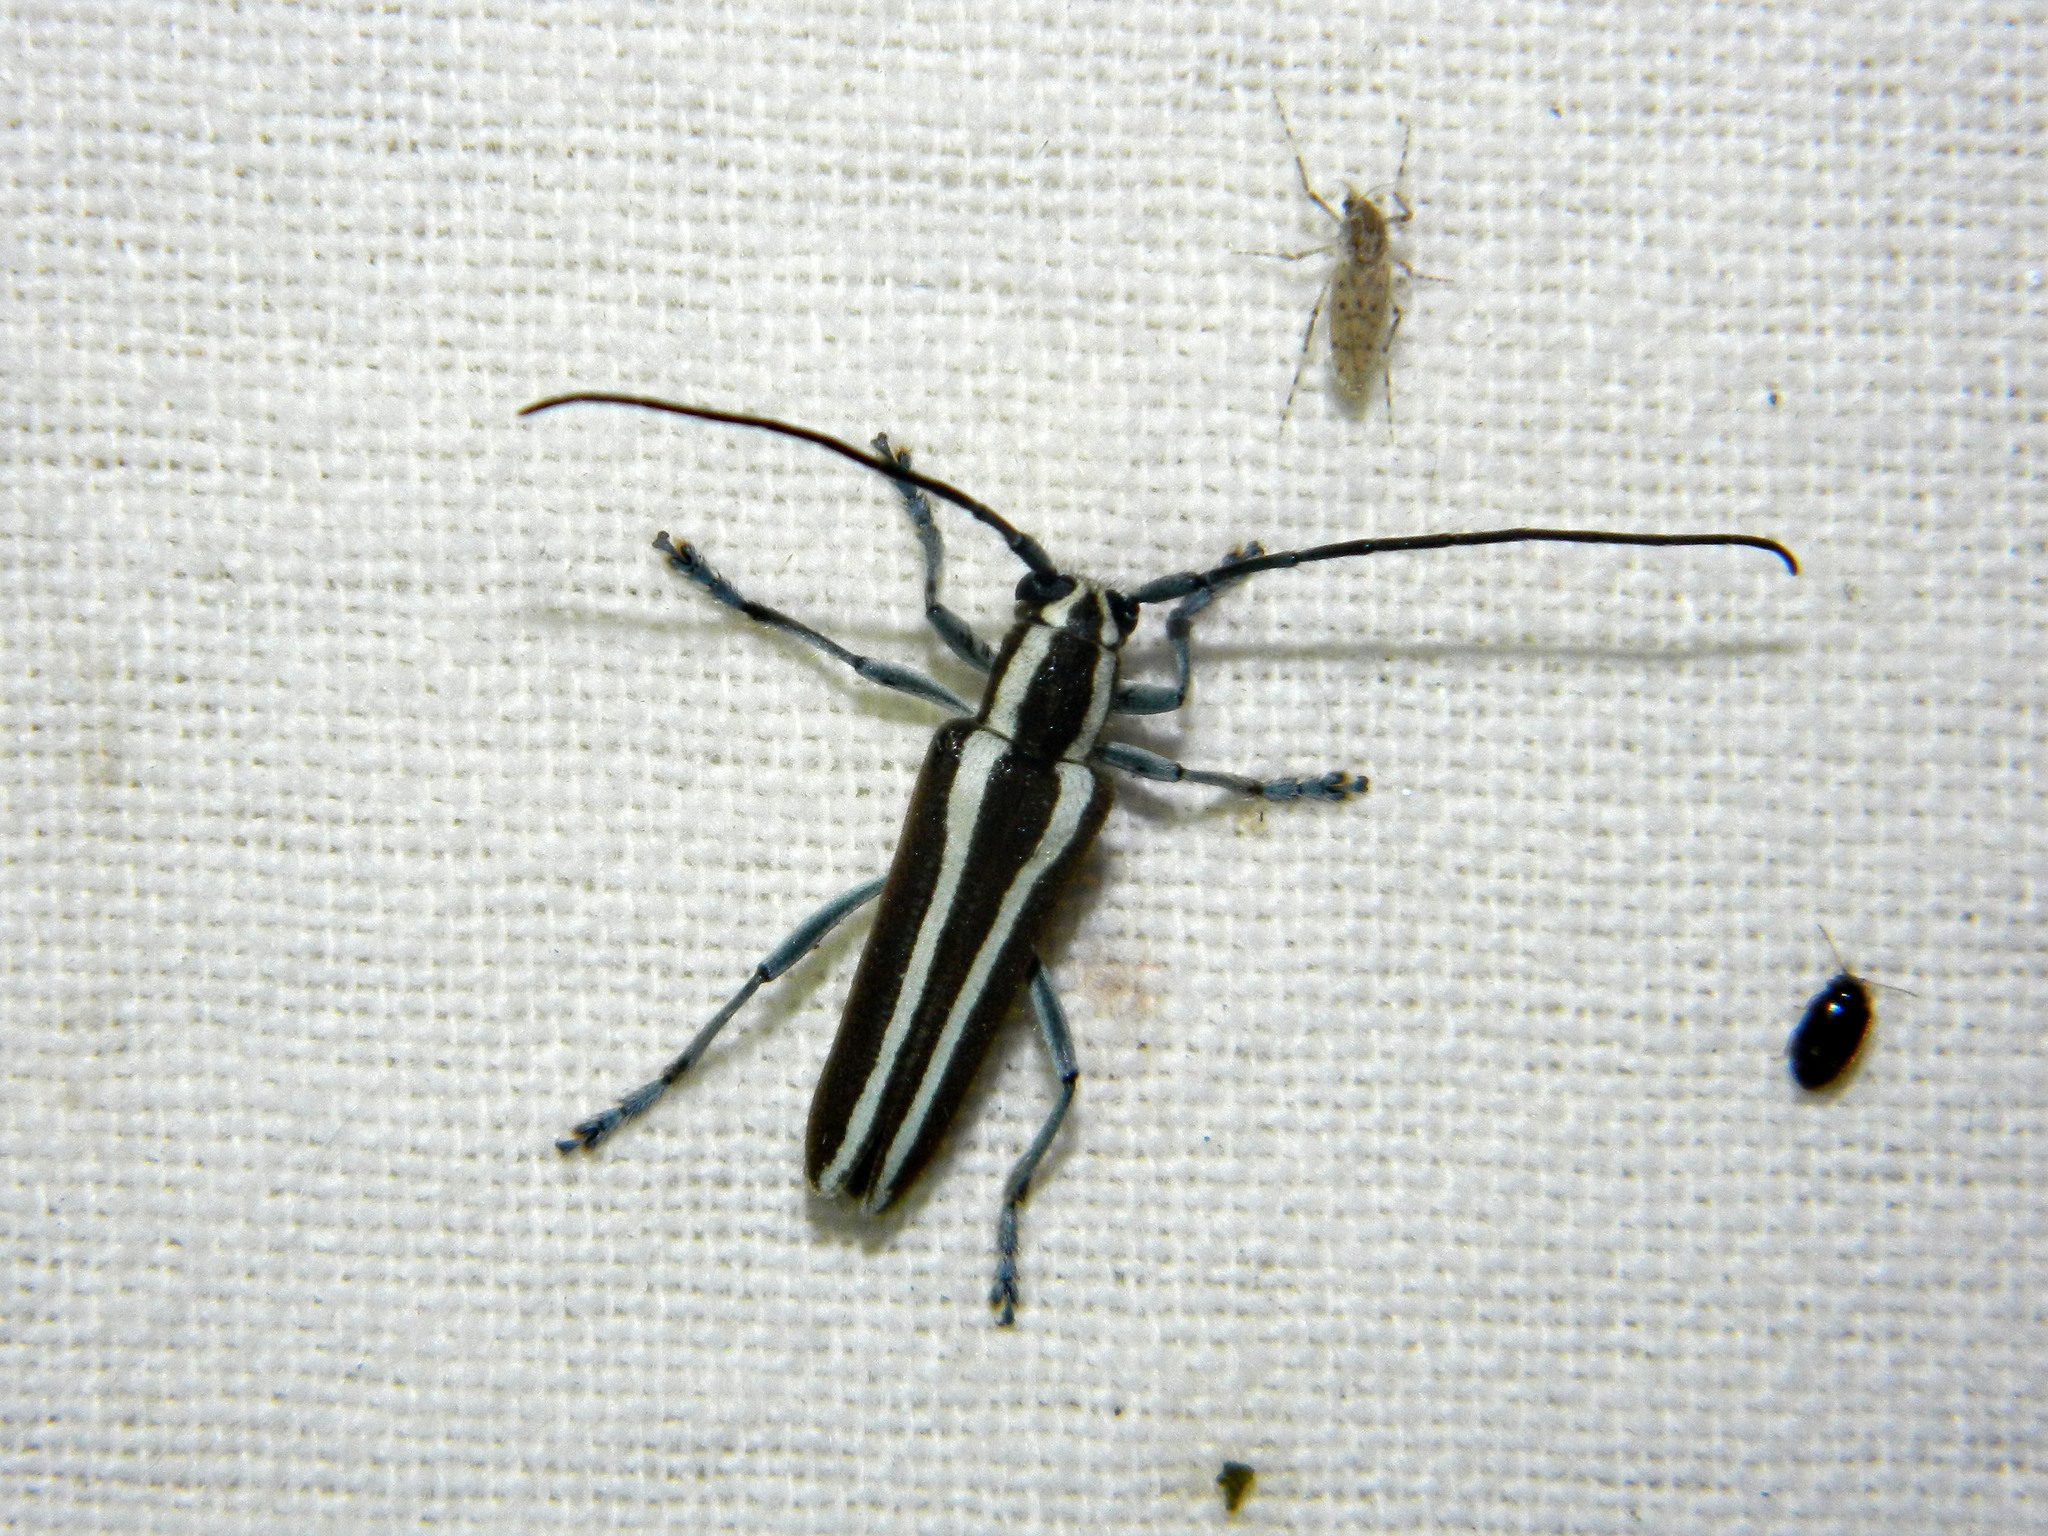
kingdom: Animalia
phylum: Arthropoda
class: Insecta
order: Coleoptera
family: Cerambycidae
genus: Saperda
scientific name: Saperda candida
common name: Round-headed borer
